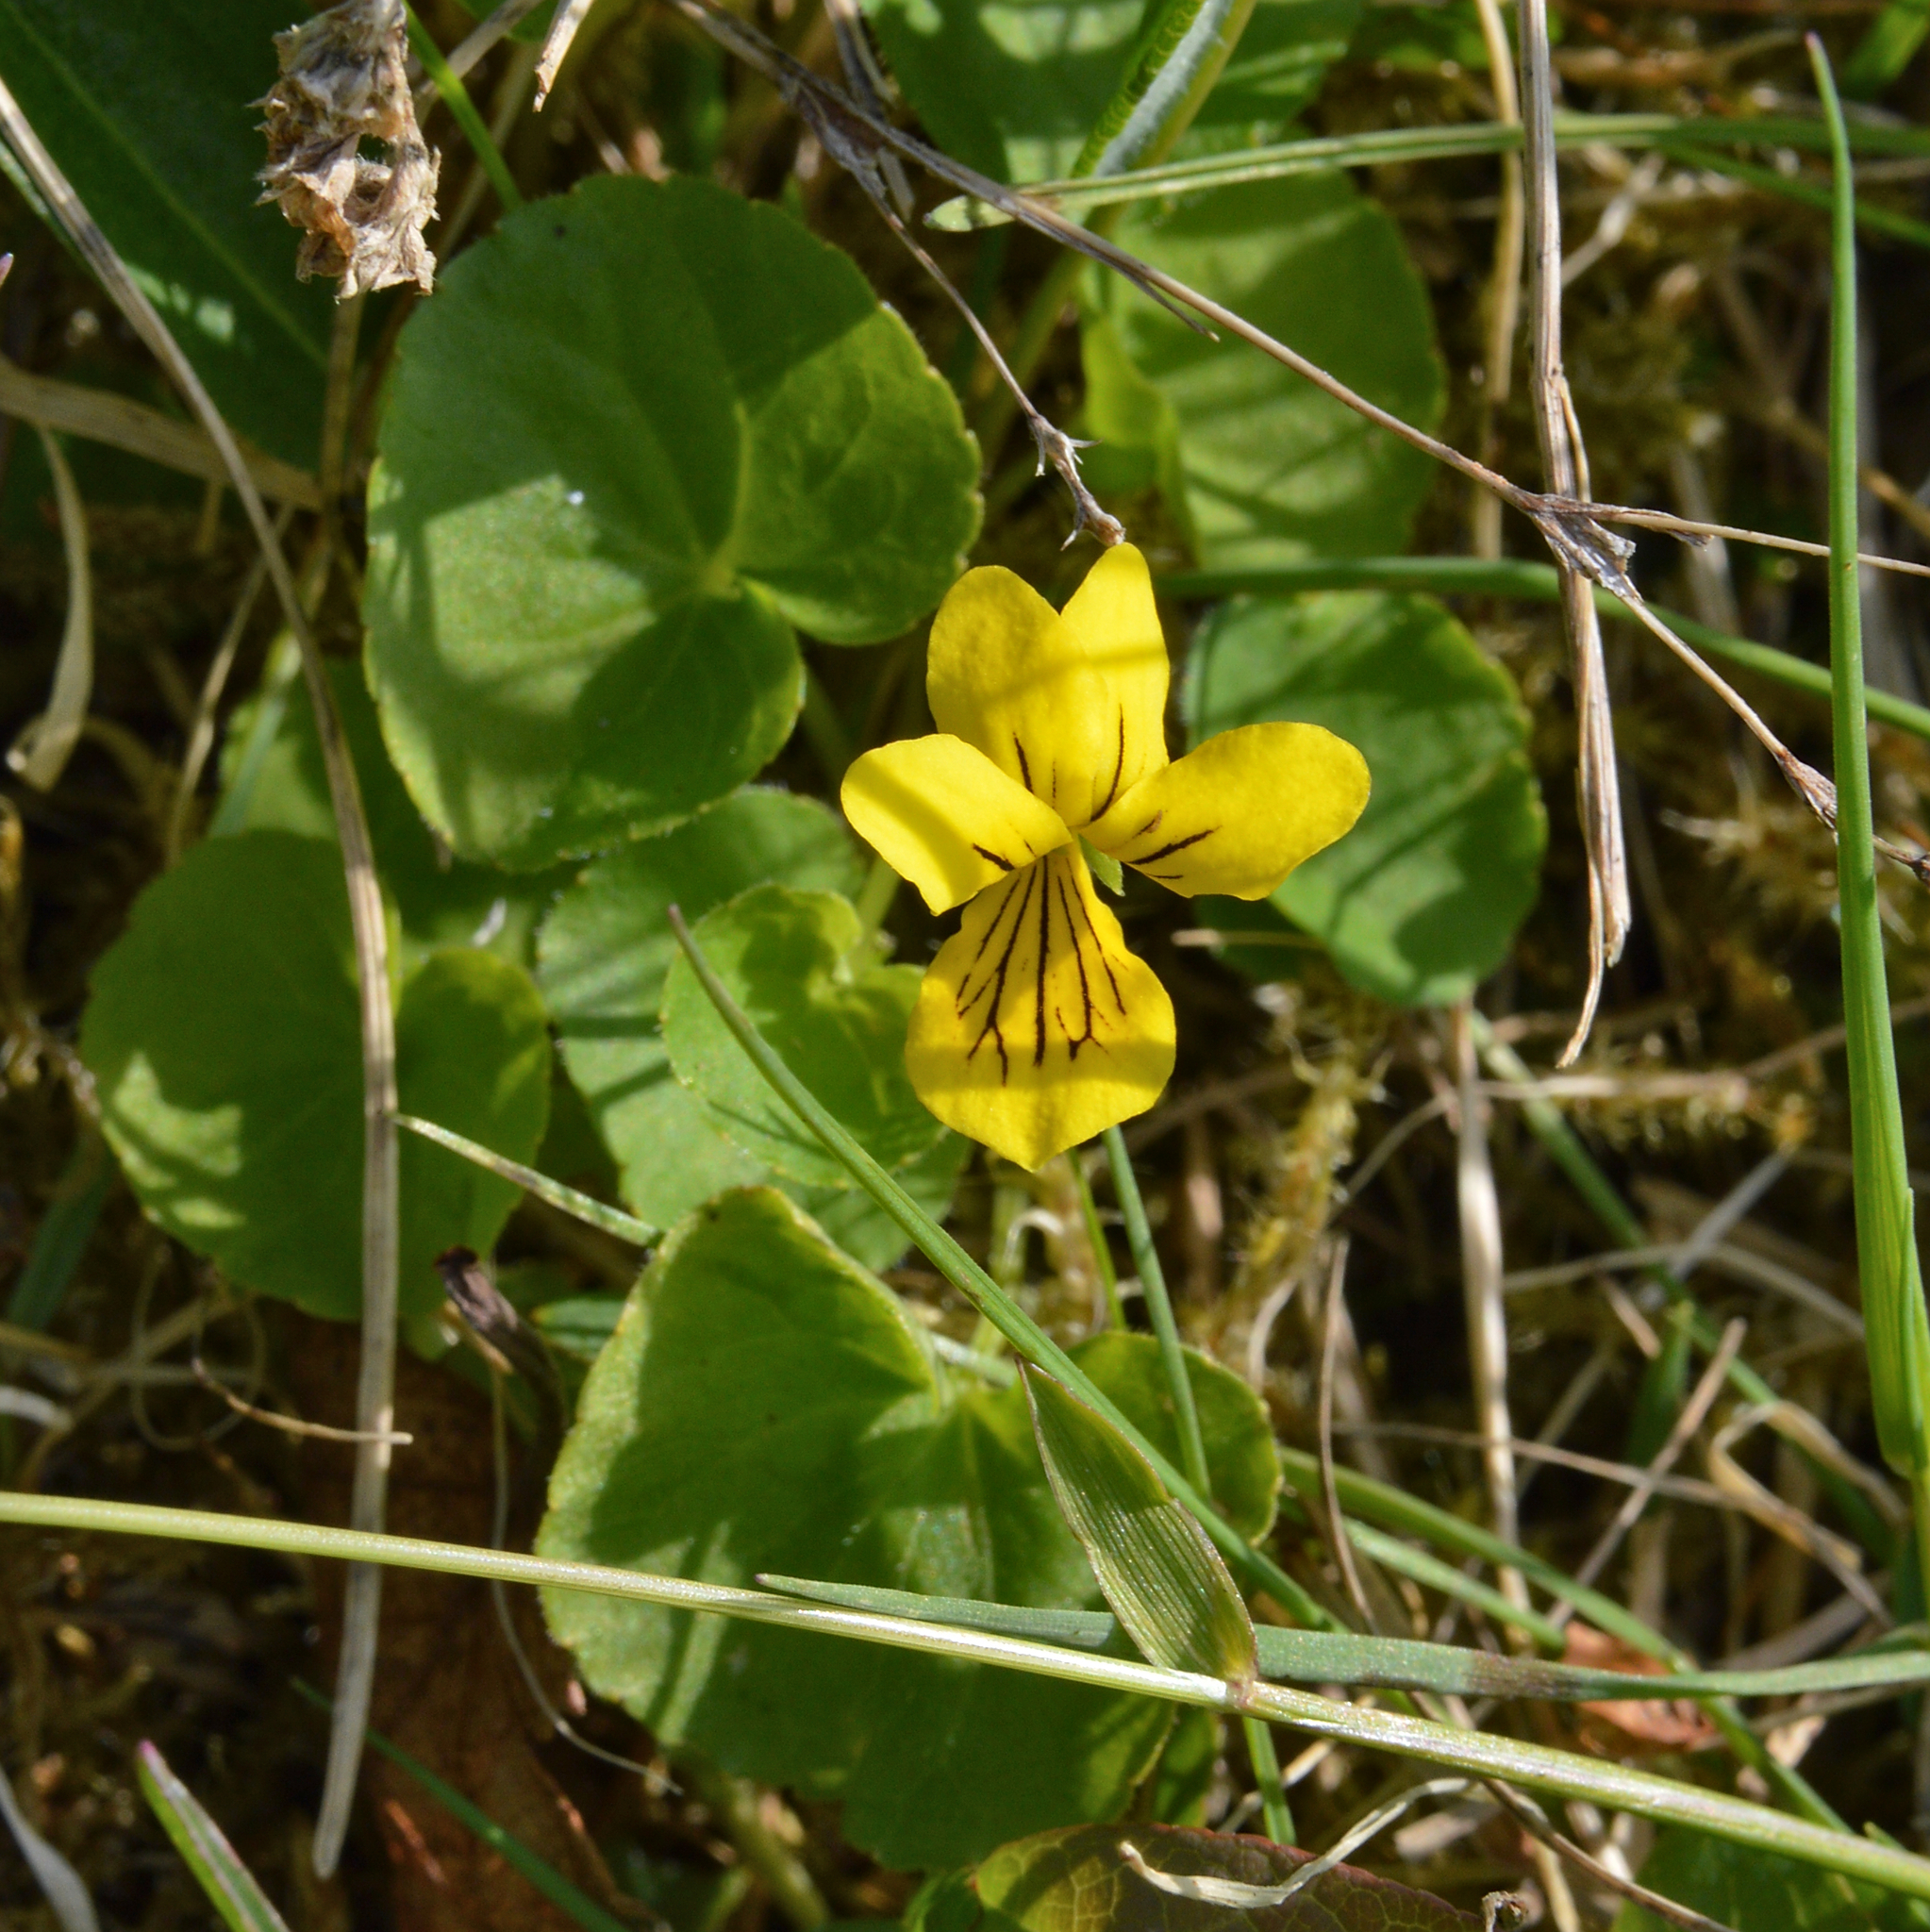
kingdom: Plantae
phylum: Tracheophyta
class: Magnoliopsida
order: Malpighiales
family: Violaceae
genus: Viola
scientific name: Viola biflora
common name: Alpine yellow violet
